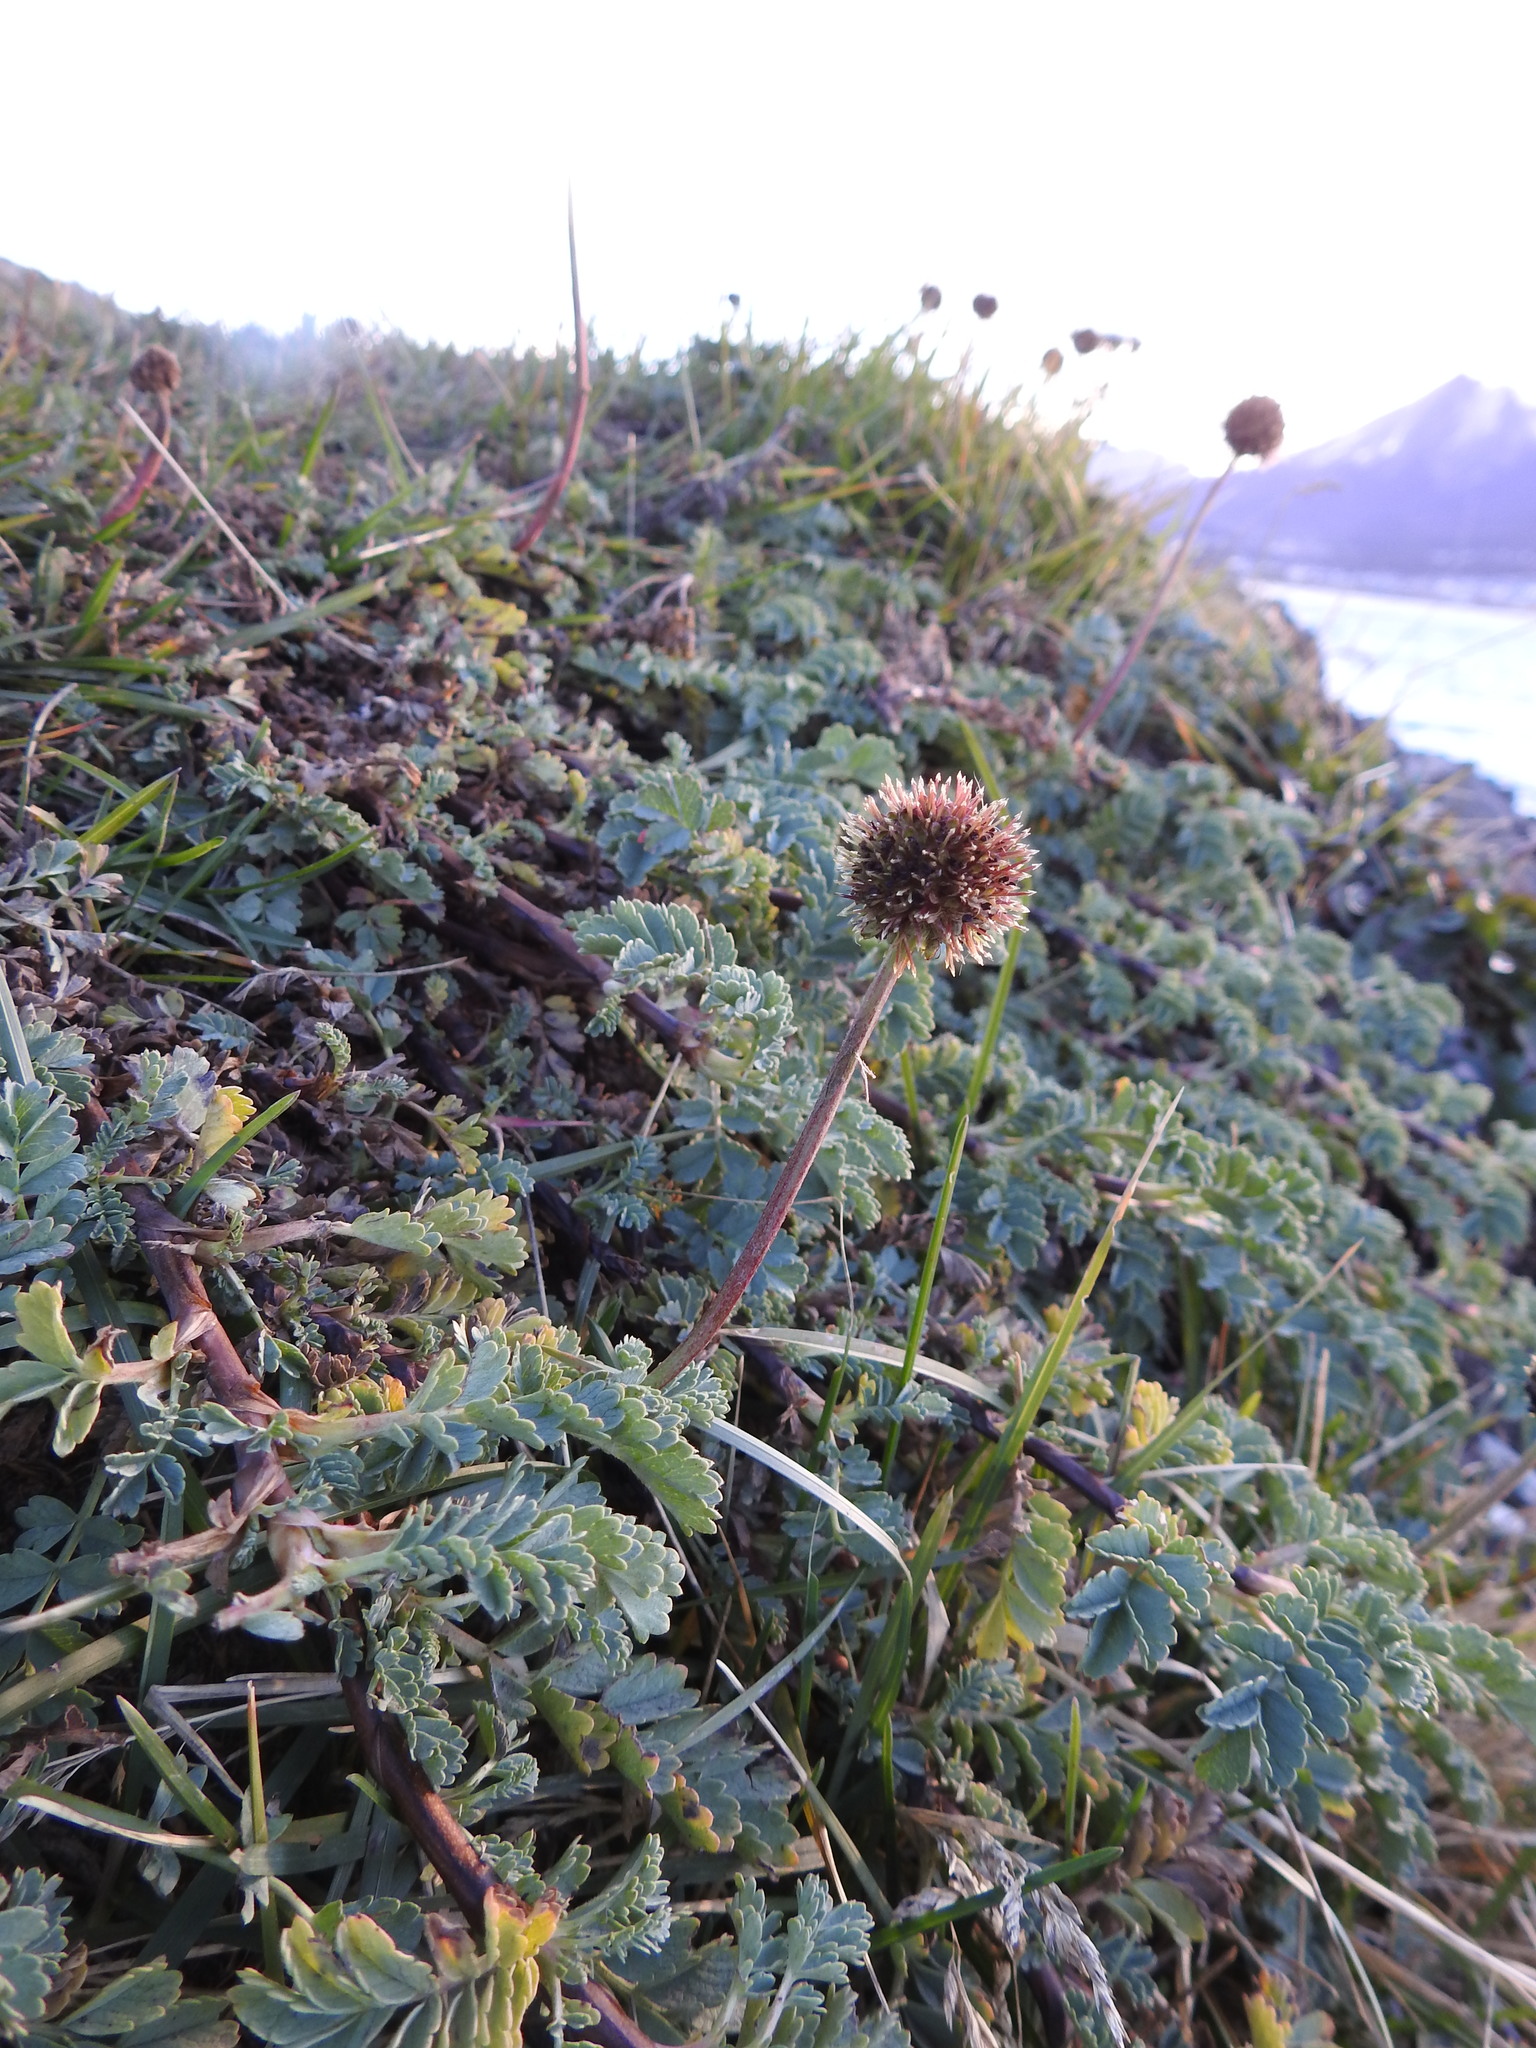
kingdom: Plantae
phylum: Tracheophyta
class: Magnoliopsida
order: Rosales
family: Rosaceae
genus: Acaena
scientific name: Acaena magellanica
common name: New zealand burr
